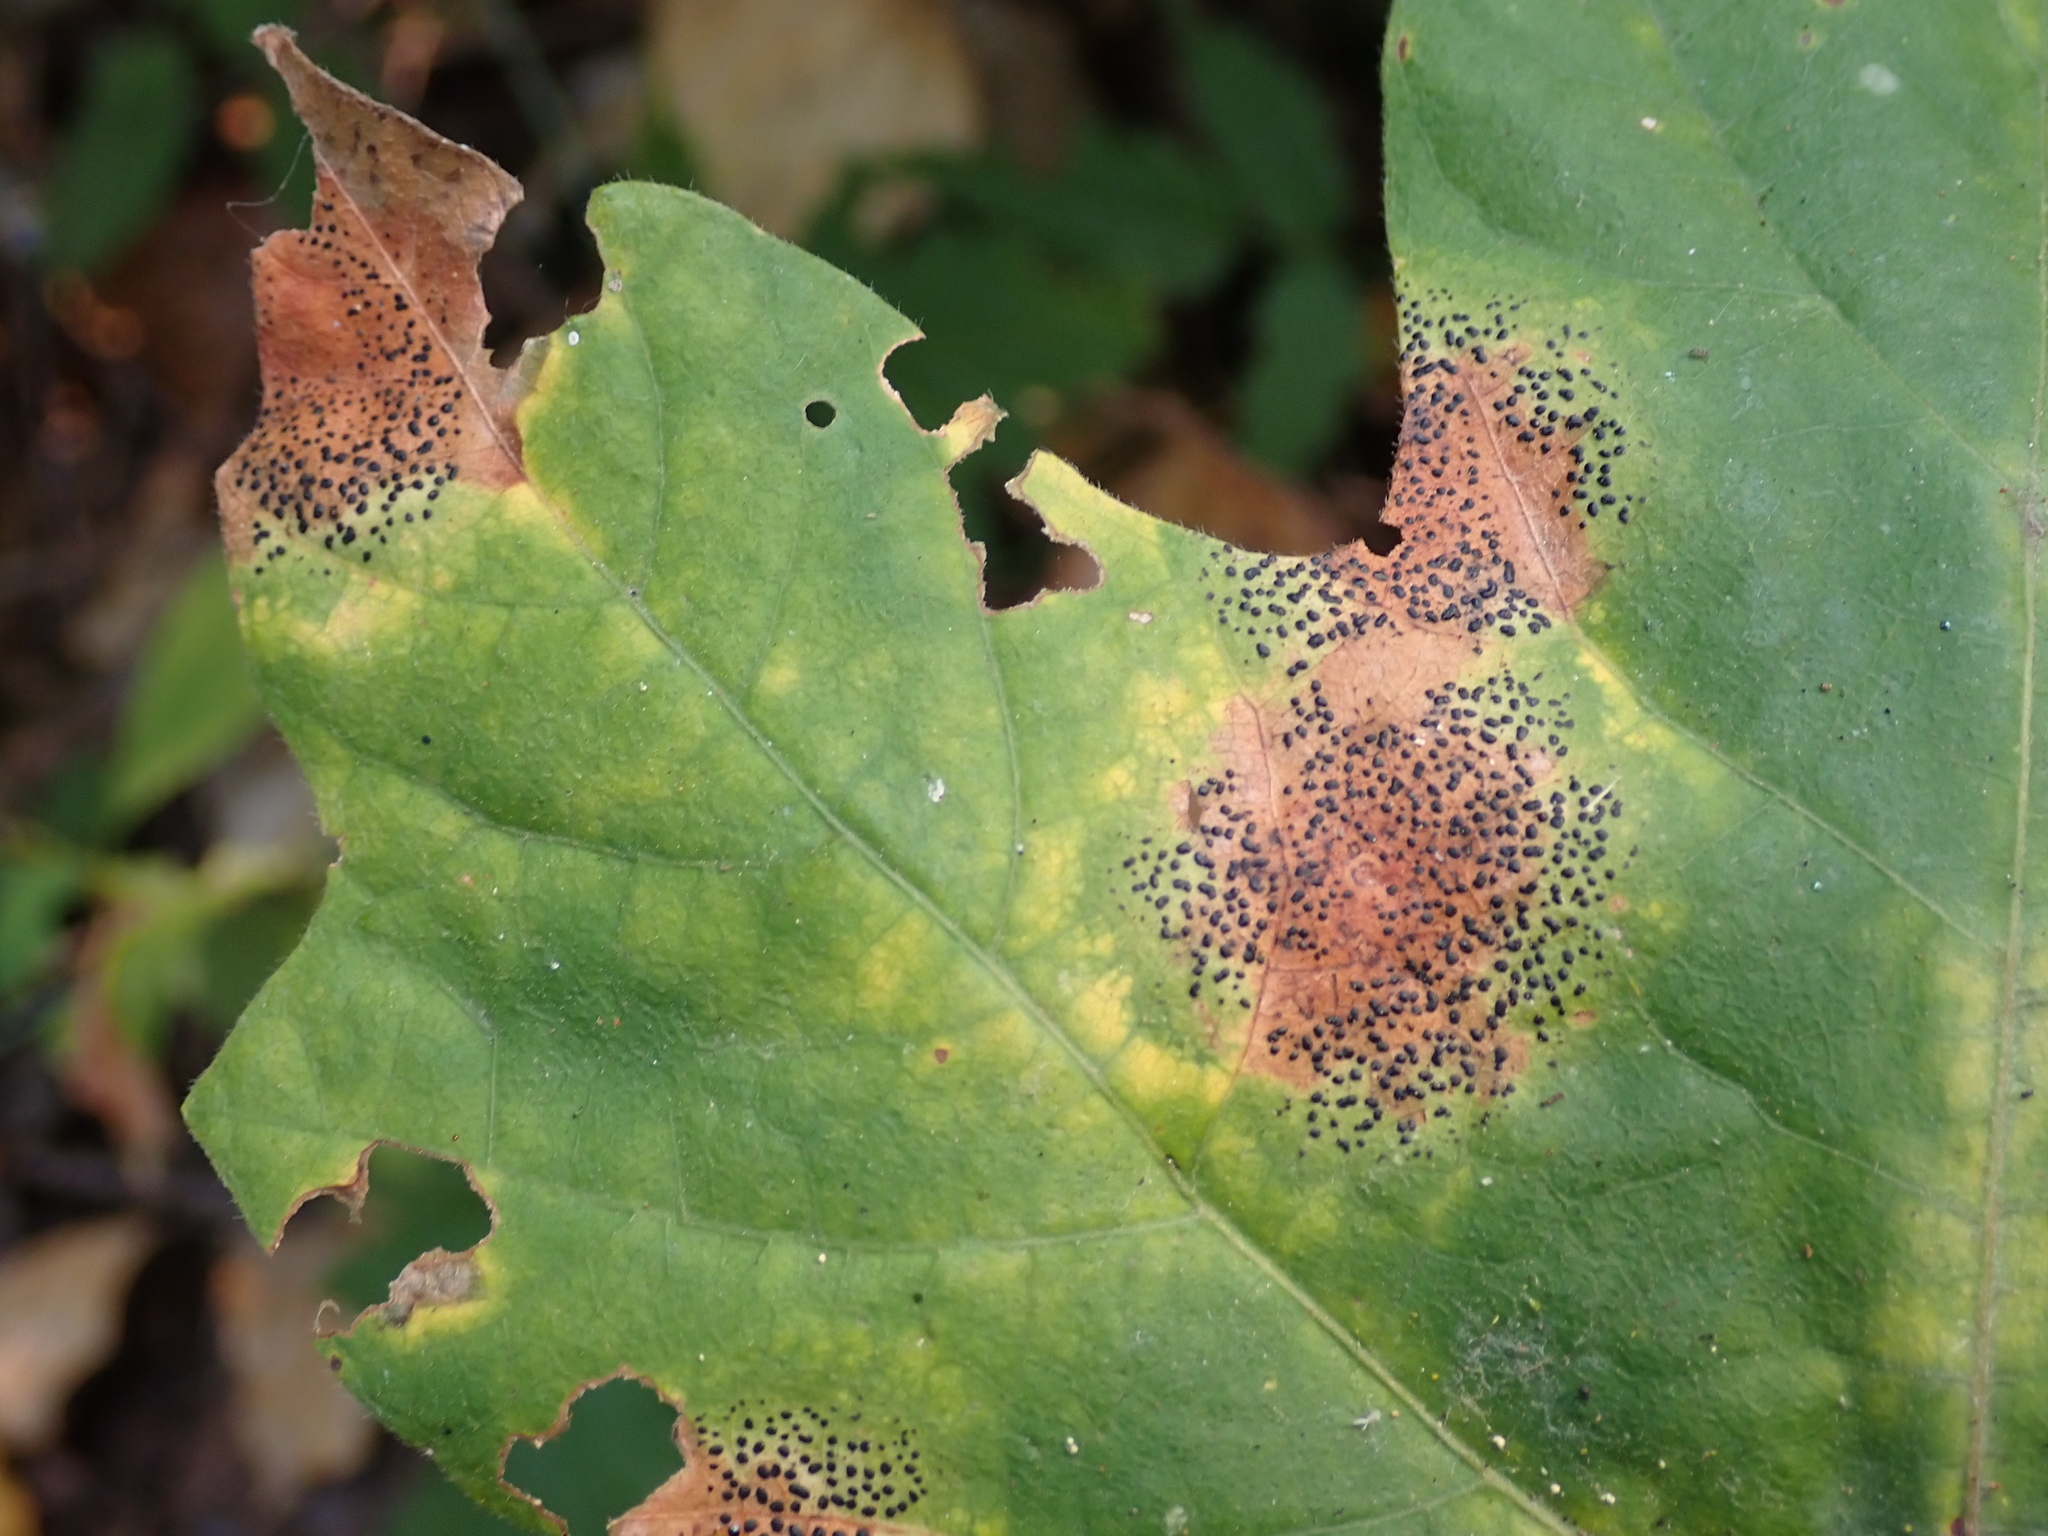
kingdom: Fungi
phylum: Ascomycota
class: Leotiomycetes
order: Rhytismatales
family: Rhytismataceae
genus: Rhytisma
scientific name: Rhytisma punctatum
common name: Speckled tar spot
